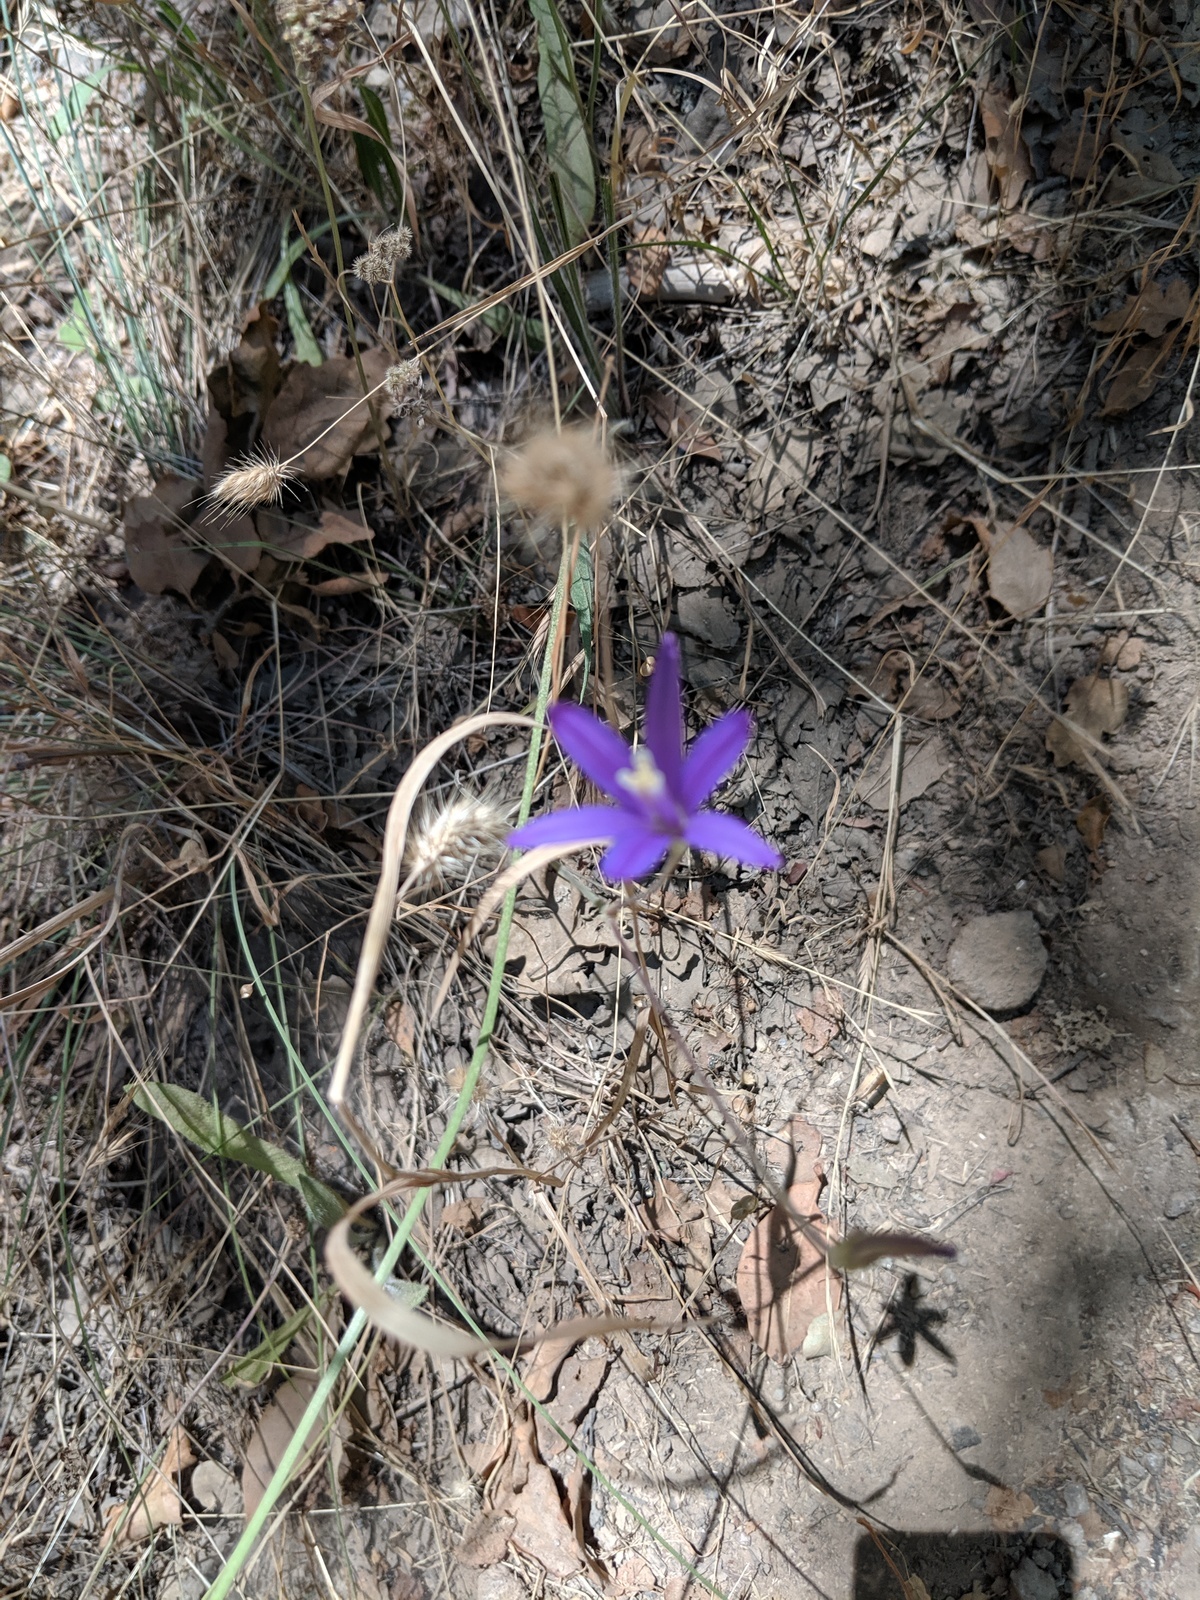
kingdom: Plantae
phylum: Tracheophyta
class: Liliopsida
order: Asparagales
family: Asparagaceae
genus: Brodiaea
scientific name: Brodiaea californica
